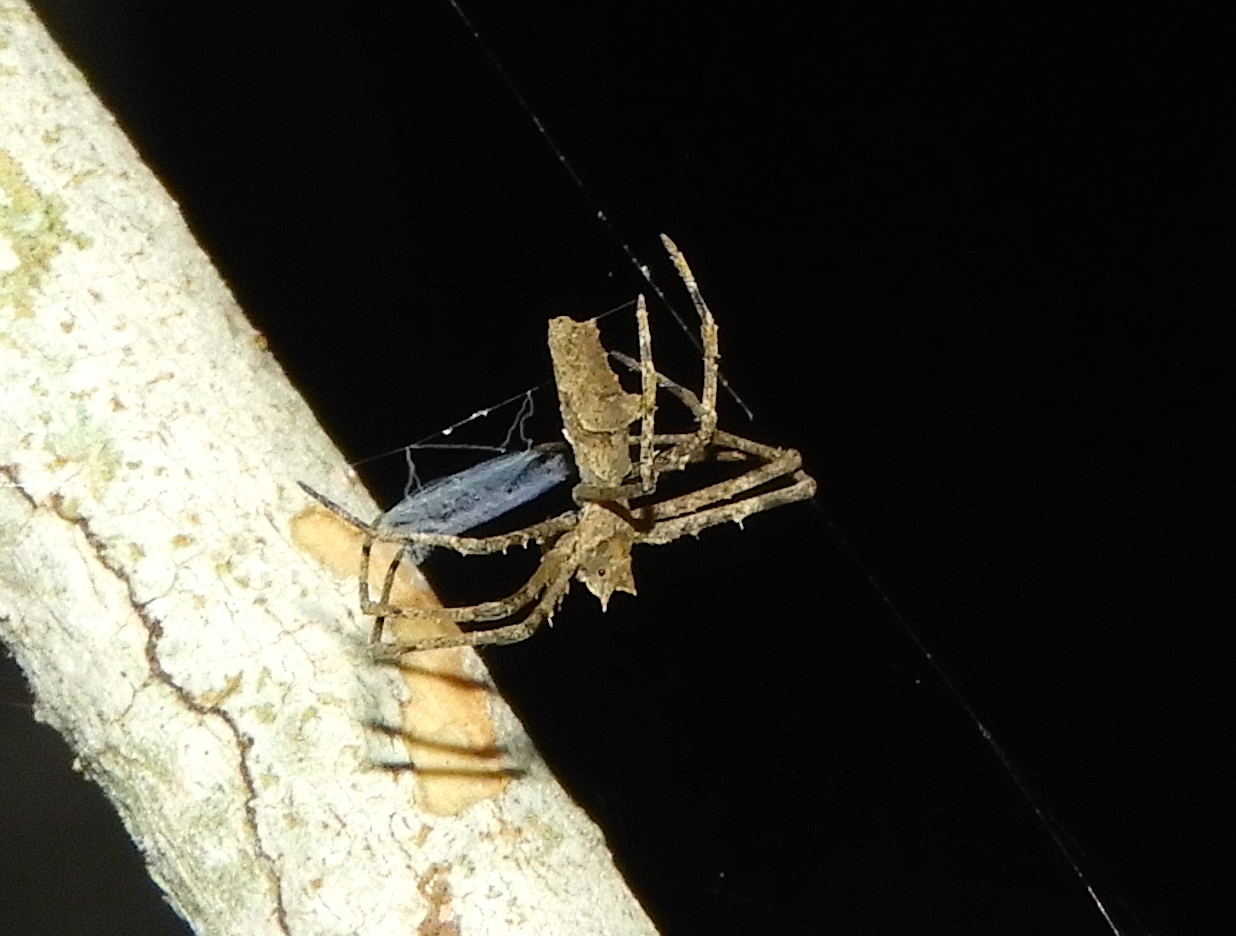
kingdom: Animalia
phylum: Arthropoda
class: Arachnida
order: Araneae
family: Deinopidae
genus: Deinopis
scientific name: Deinopis aurita
